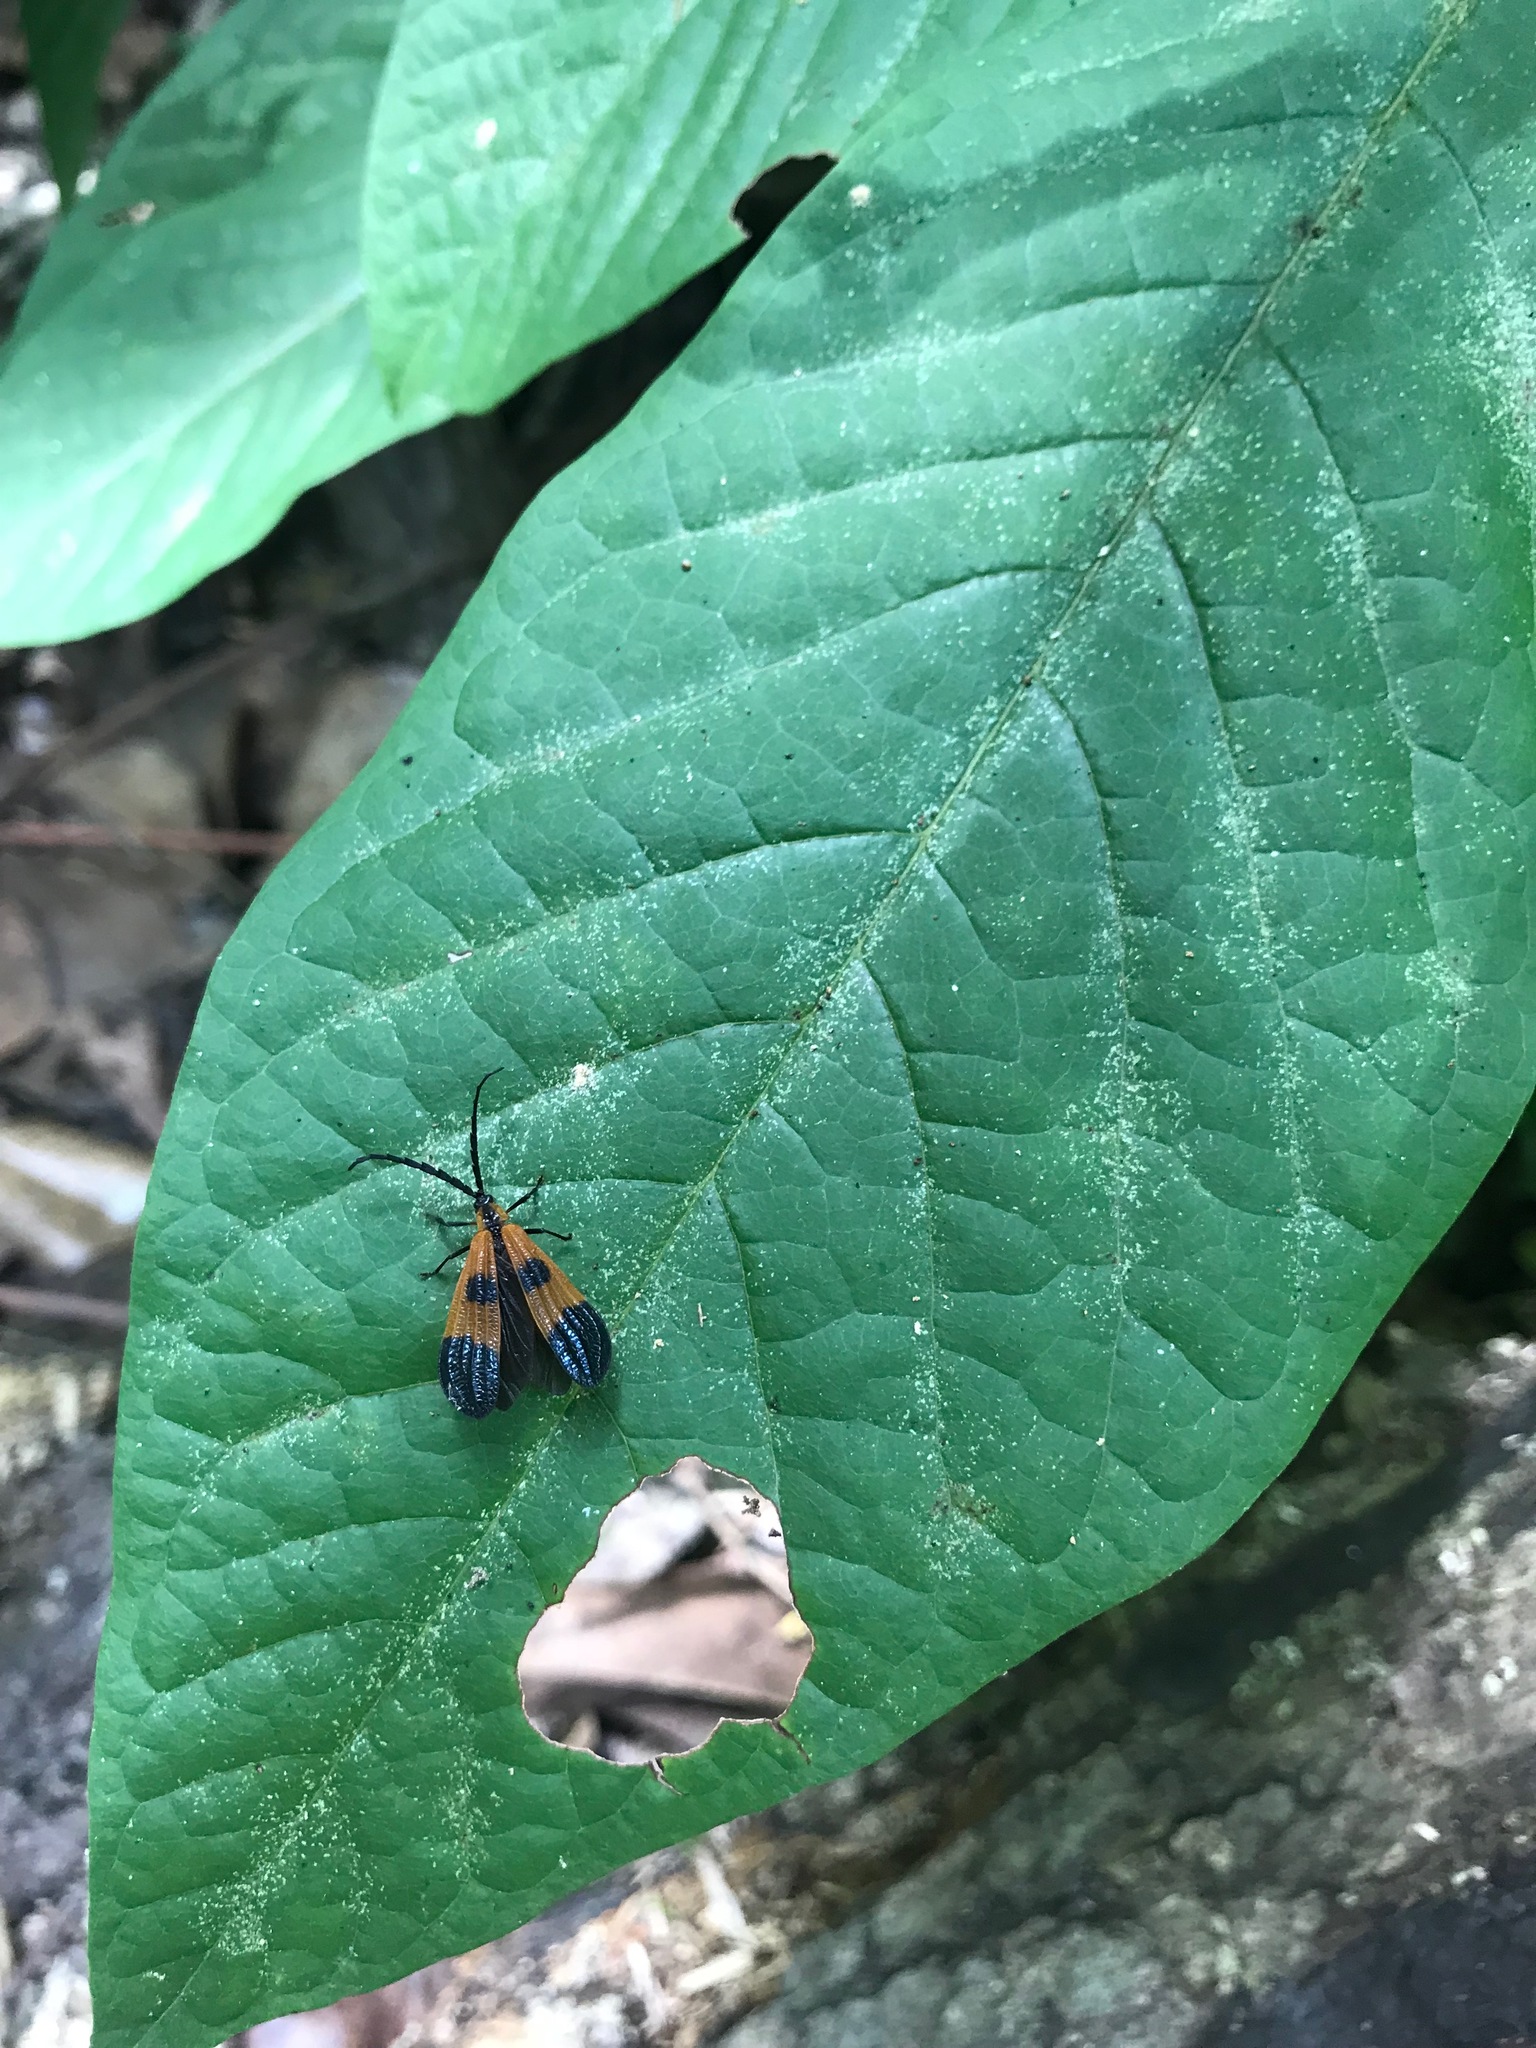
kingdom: Animalia
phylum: Arthropoda
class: Insecta
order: Coleoptera
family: Lycidae
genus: Calopteron
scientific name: Calopteron terminale
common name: End band net-winged beetle
